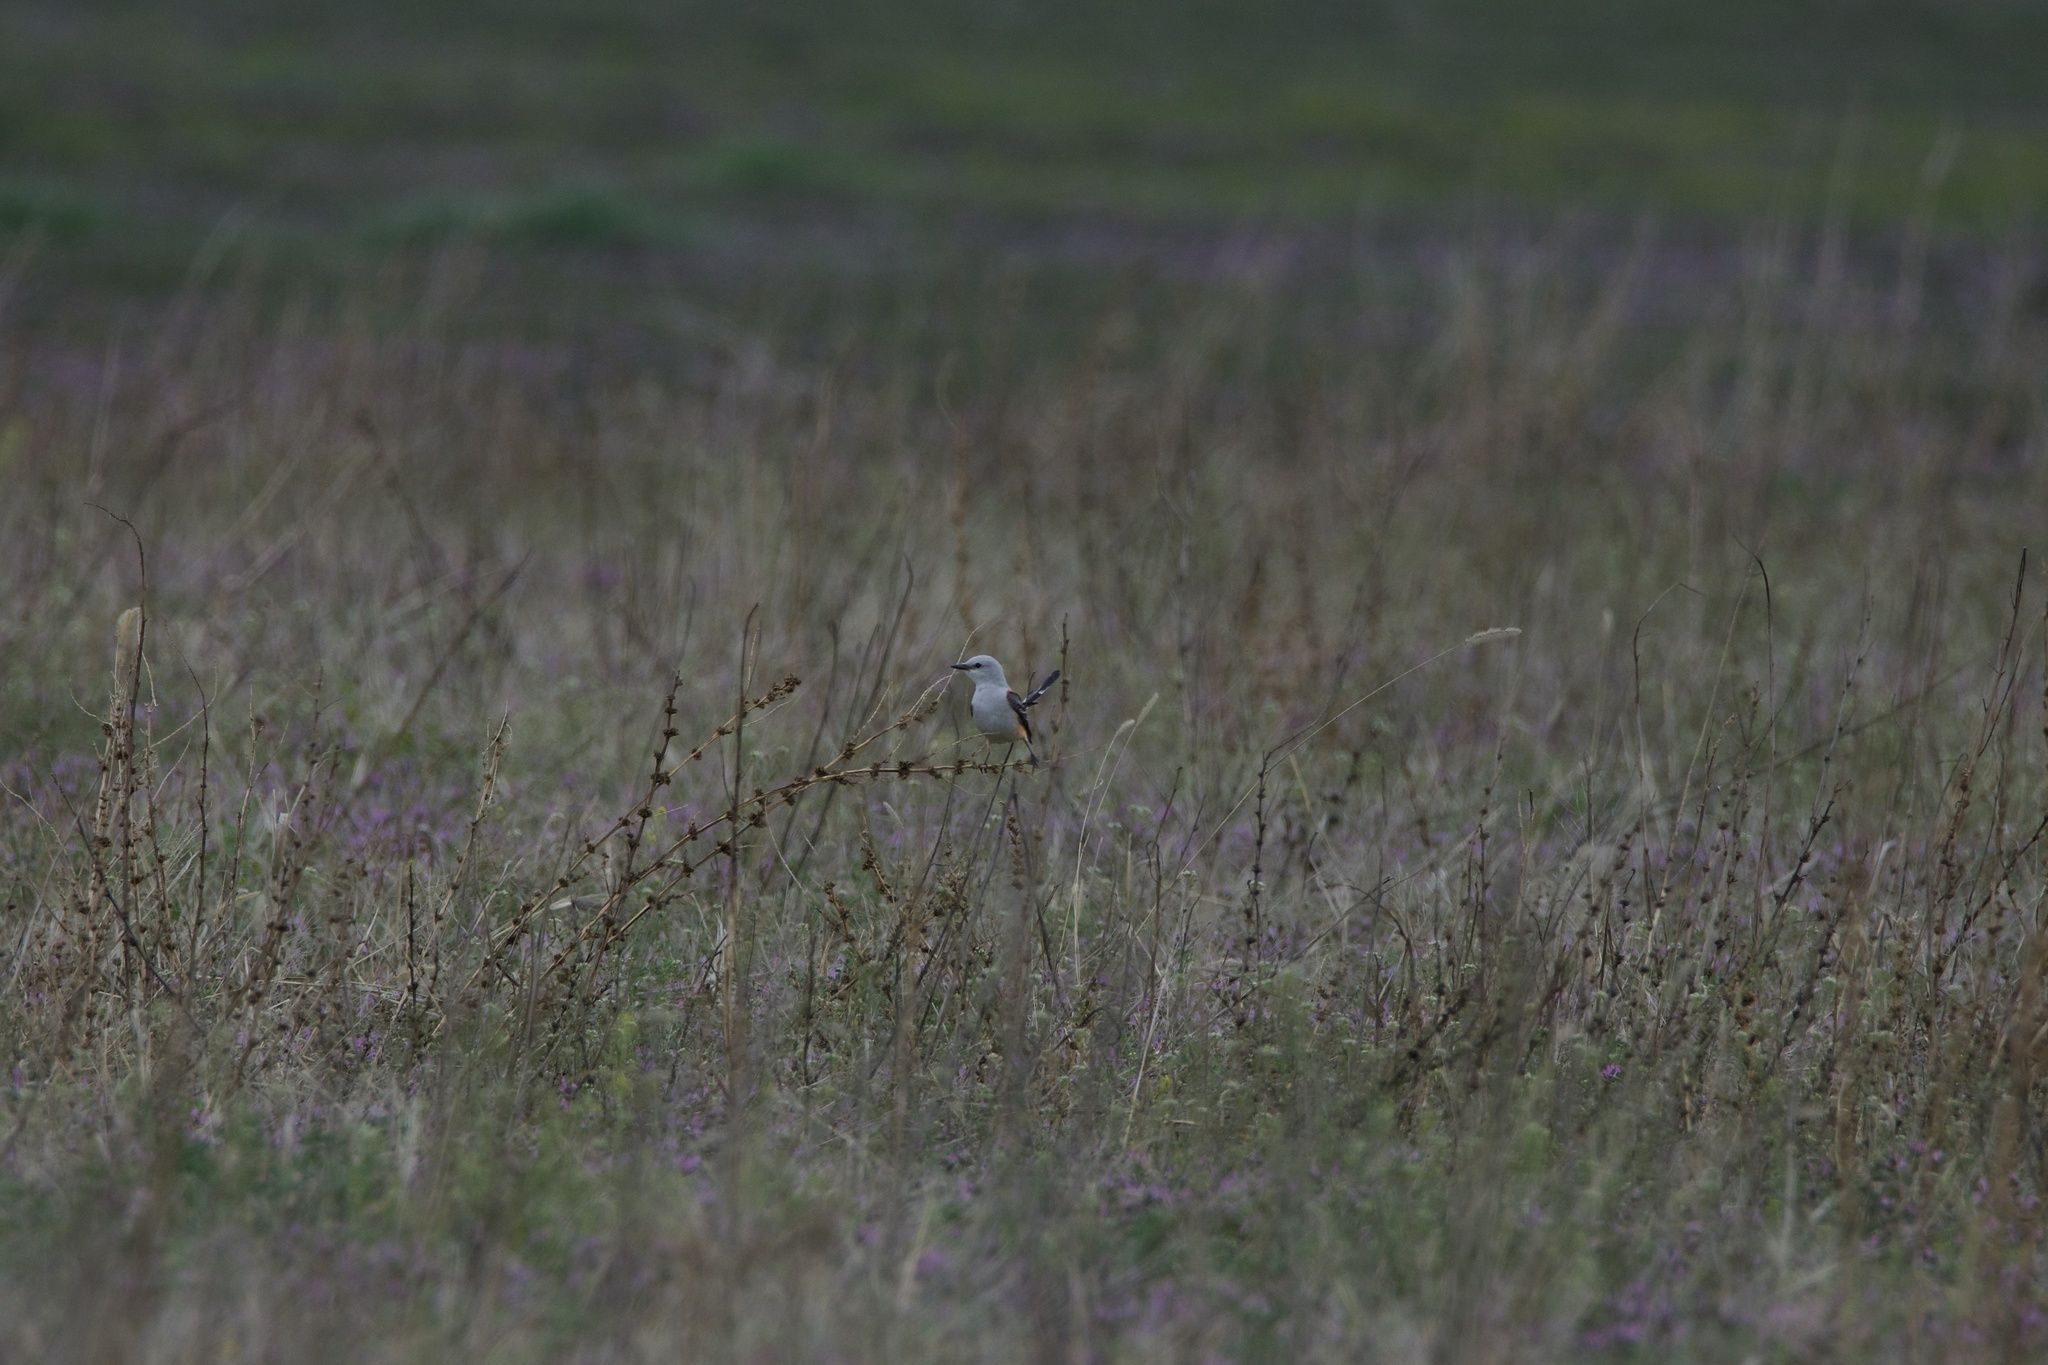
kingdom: Animalia
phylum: Chordata
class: Aves
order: Passeriformes
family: Tyrannidae
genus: Tyrannus
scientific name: Tyrannus forficatus
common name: Scissor-tailed flycatcher
